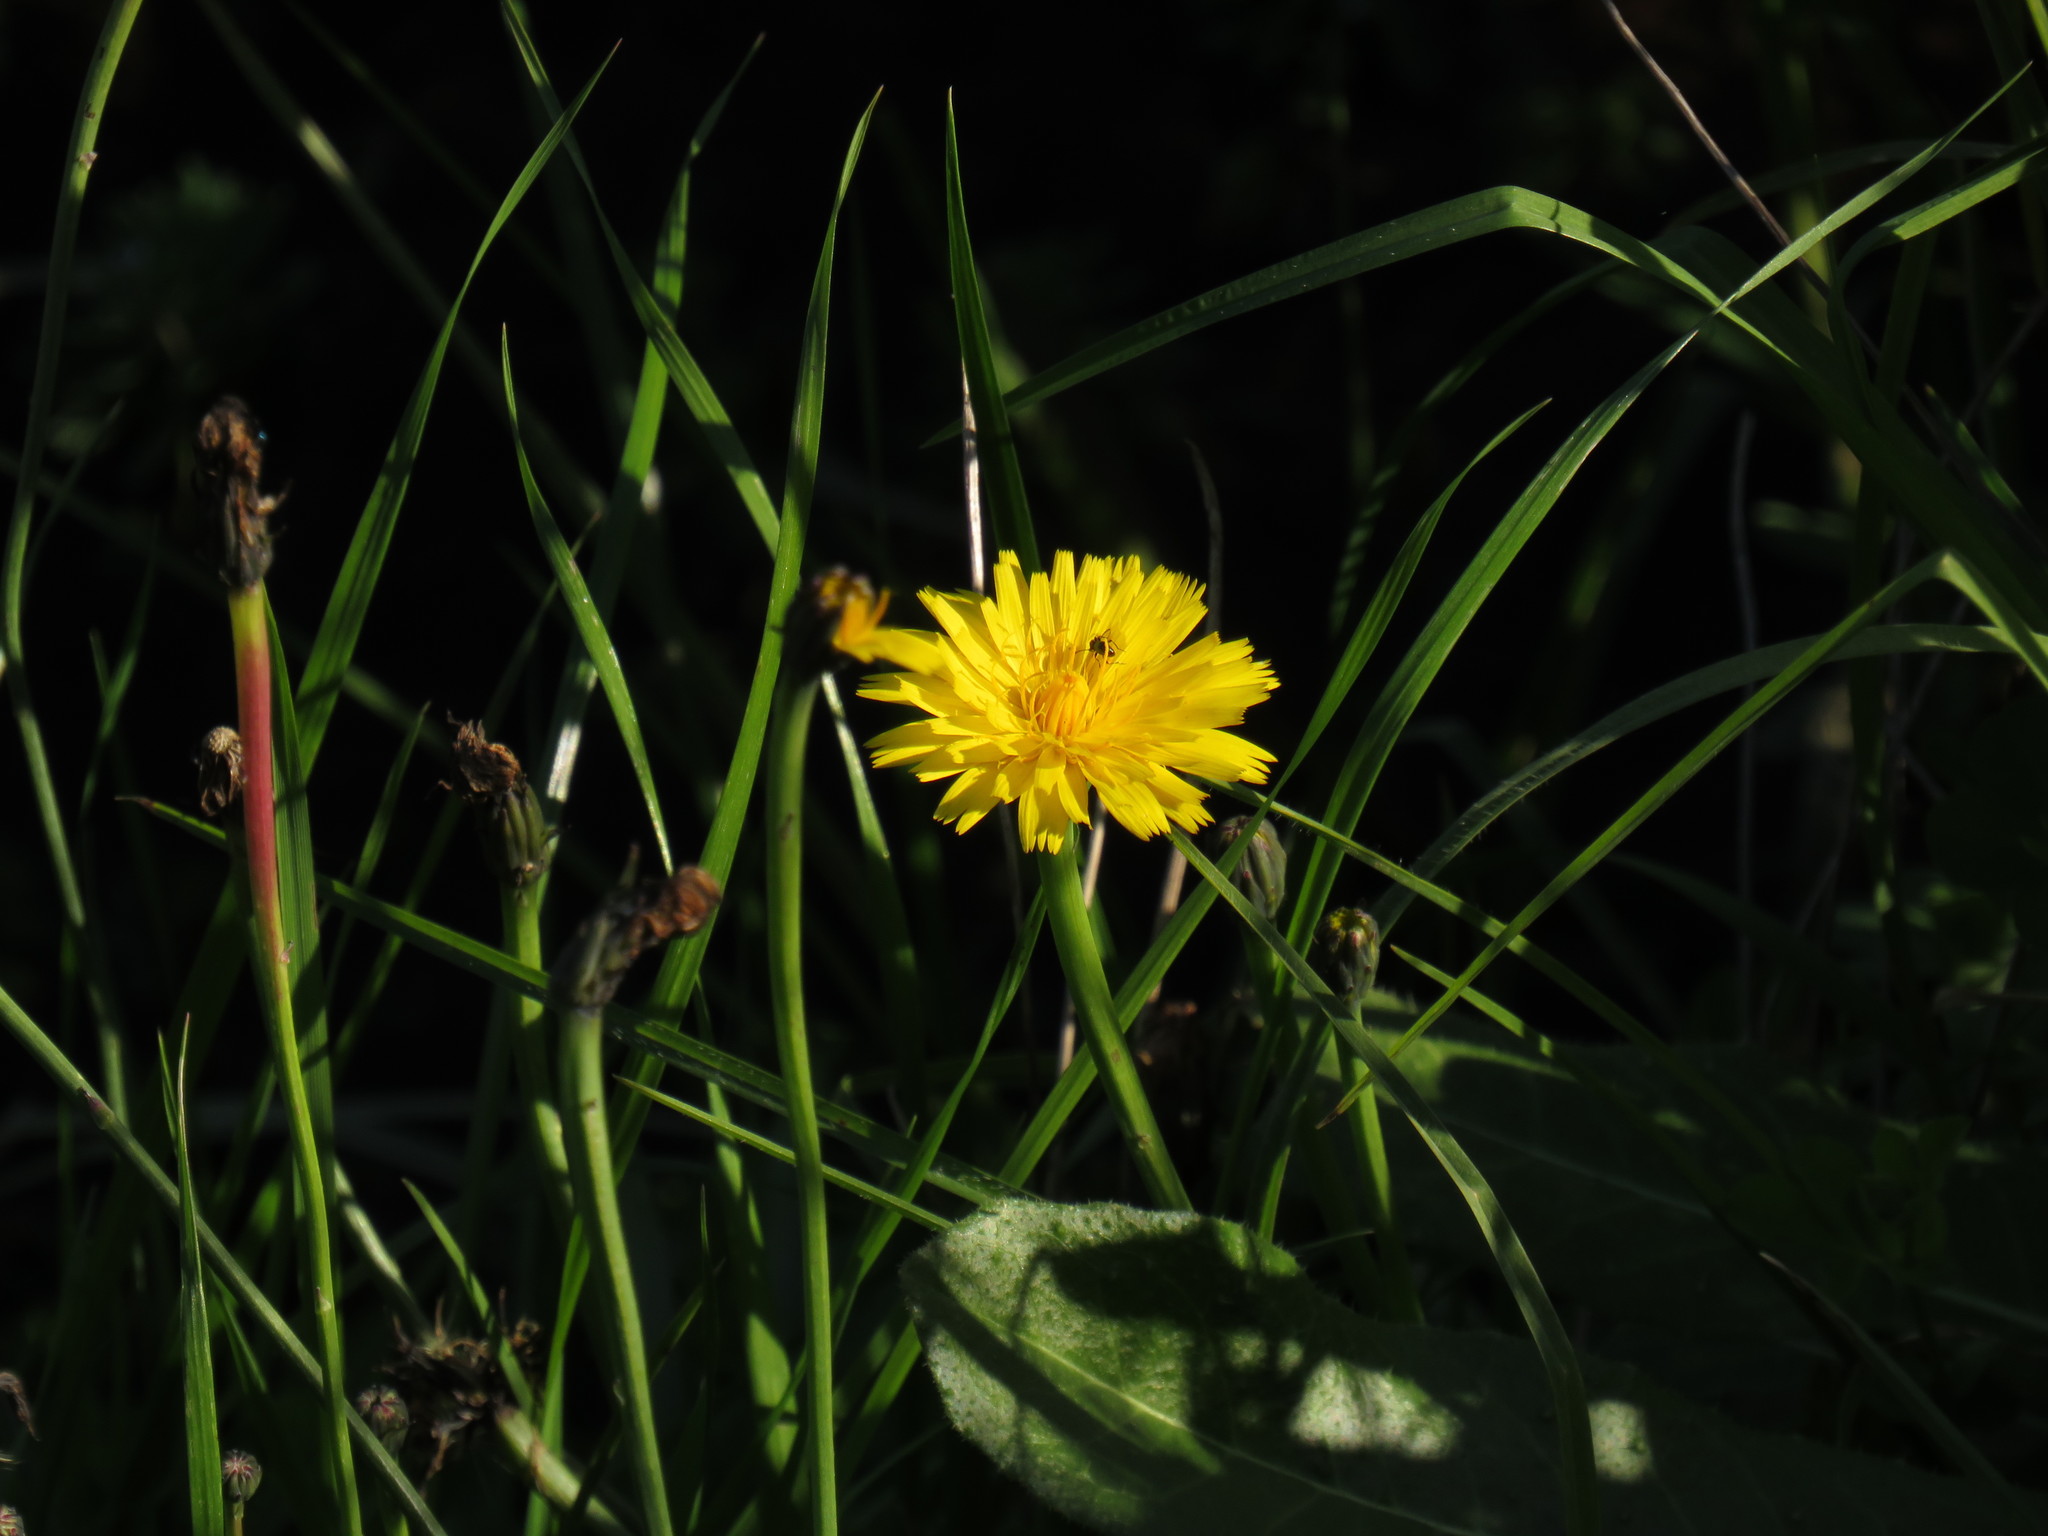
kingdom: Plantae
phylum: Tracheophyta
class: Magnoliopsida
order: Asterales
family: Asteraceae
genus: Hypochaeris
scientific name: Hypochaeris radicata
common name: Flatweed
